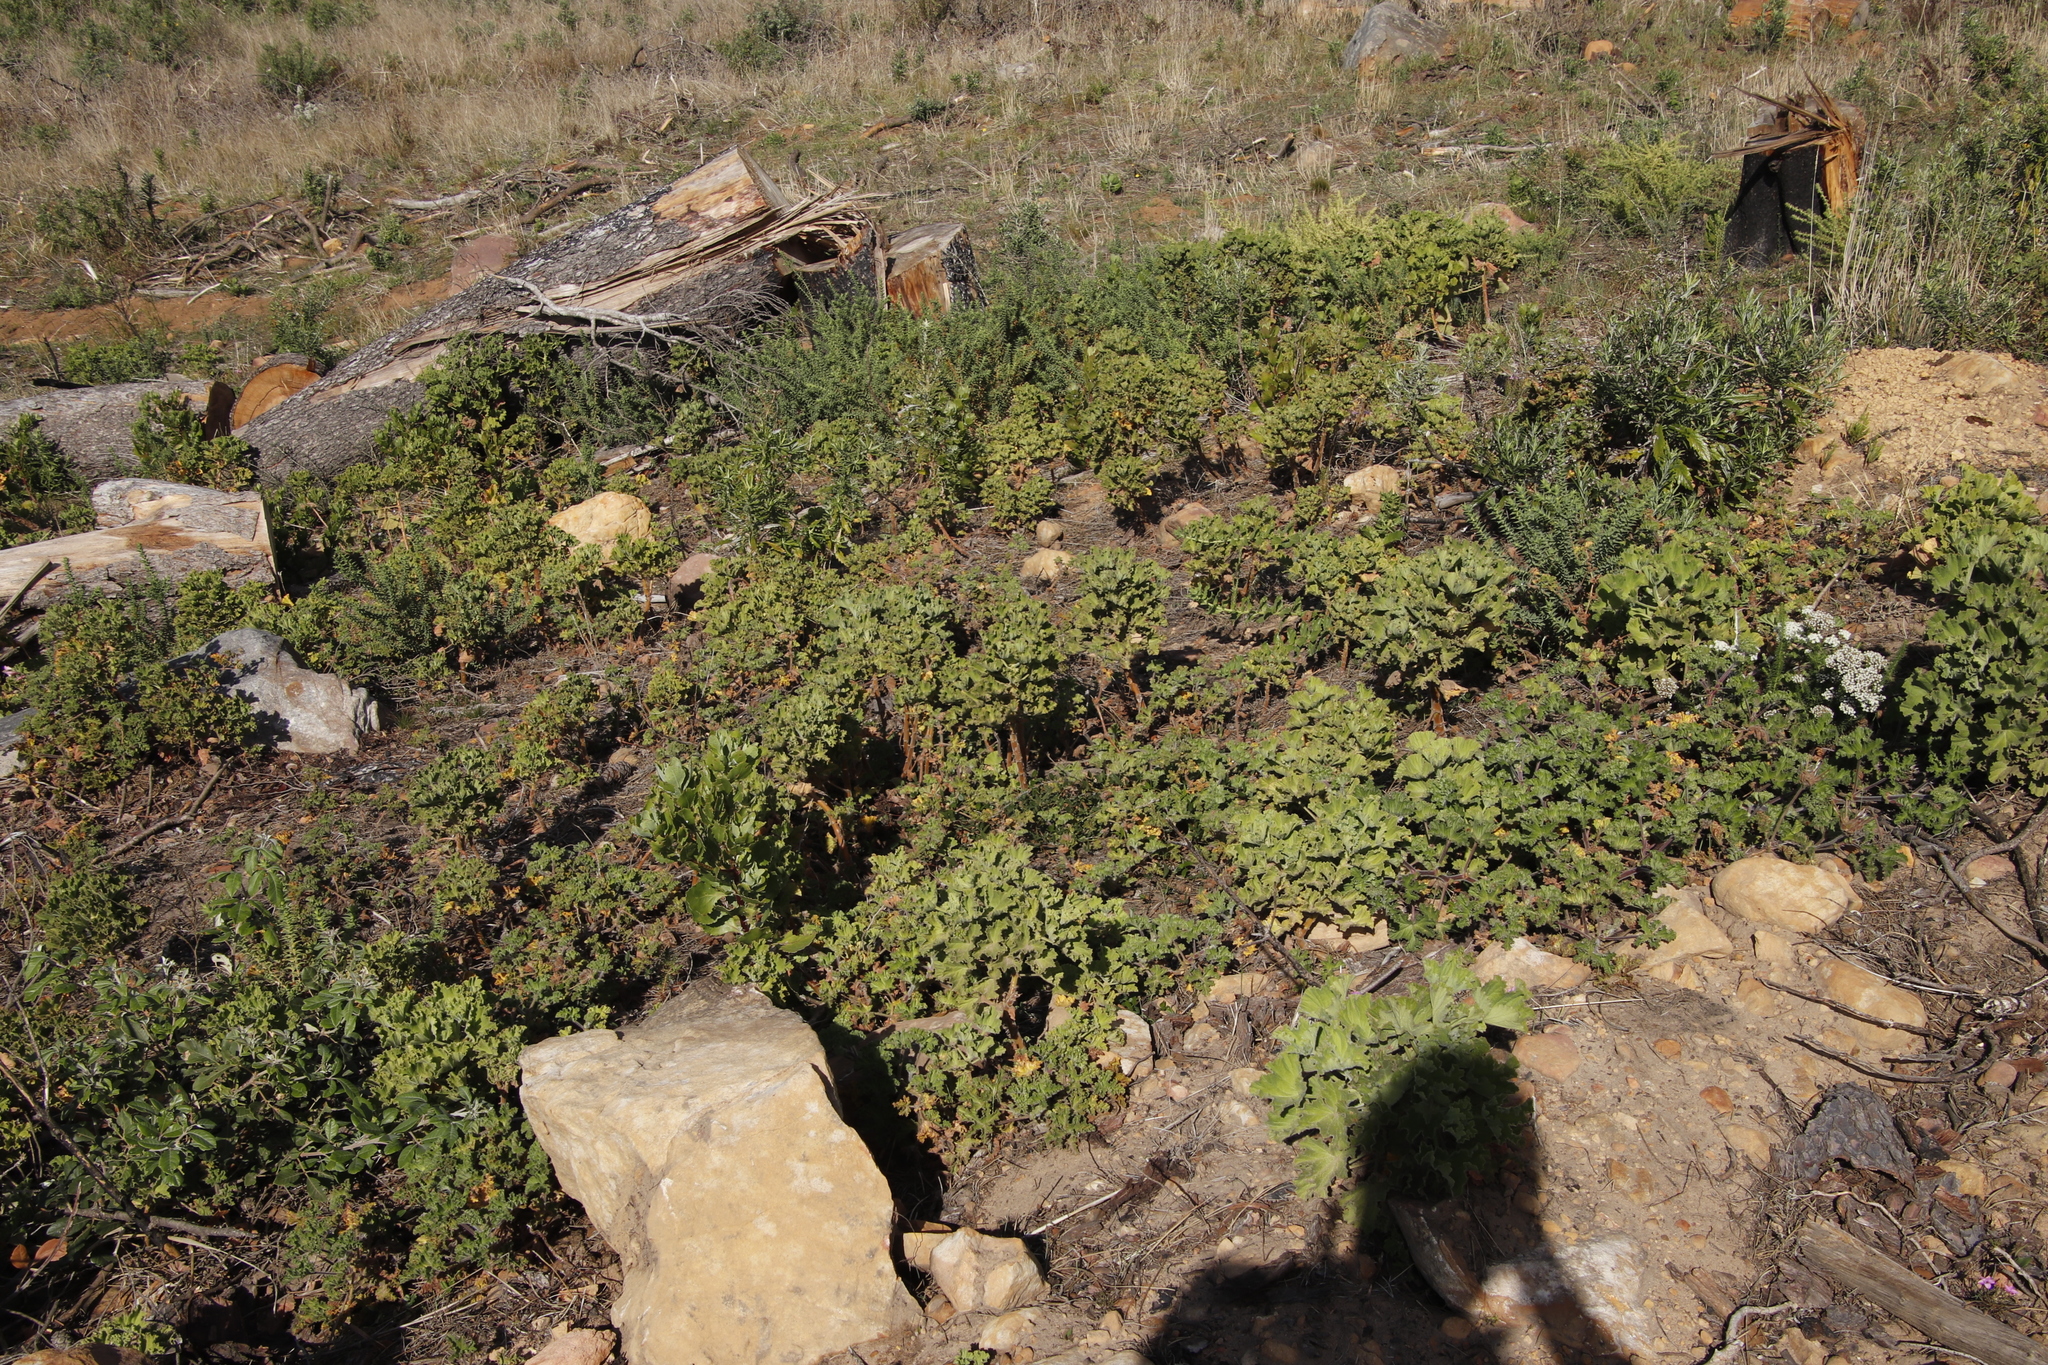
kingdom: Plantae
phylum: Tracheophyta
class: Magnoliopsida
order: Geraniales
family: Geraniaceae
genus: Pelargonium
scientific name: Pelargonium cucullatum
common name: Tree pelargonium
